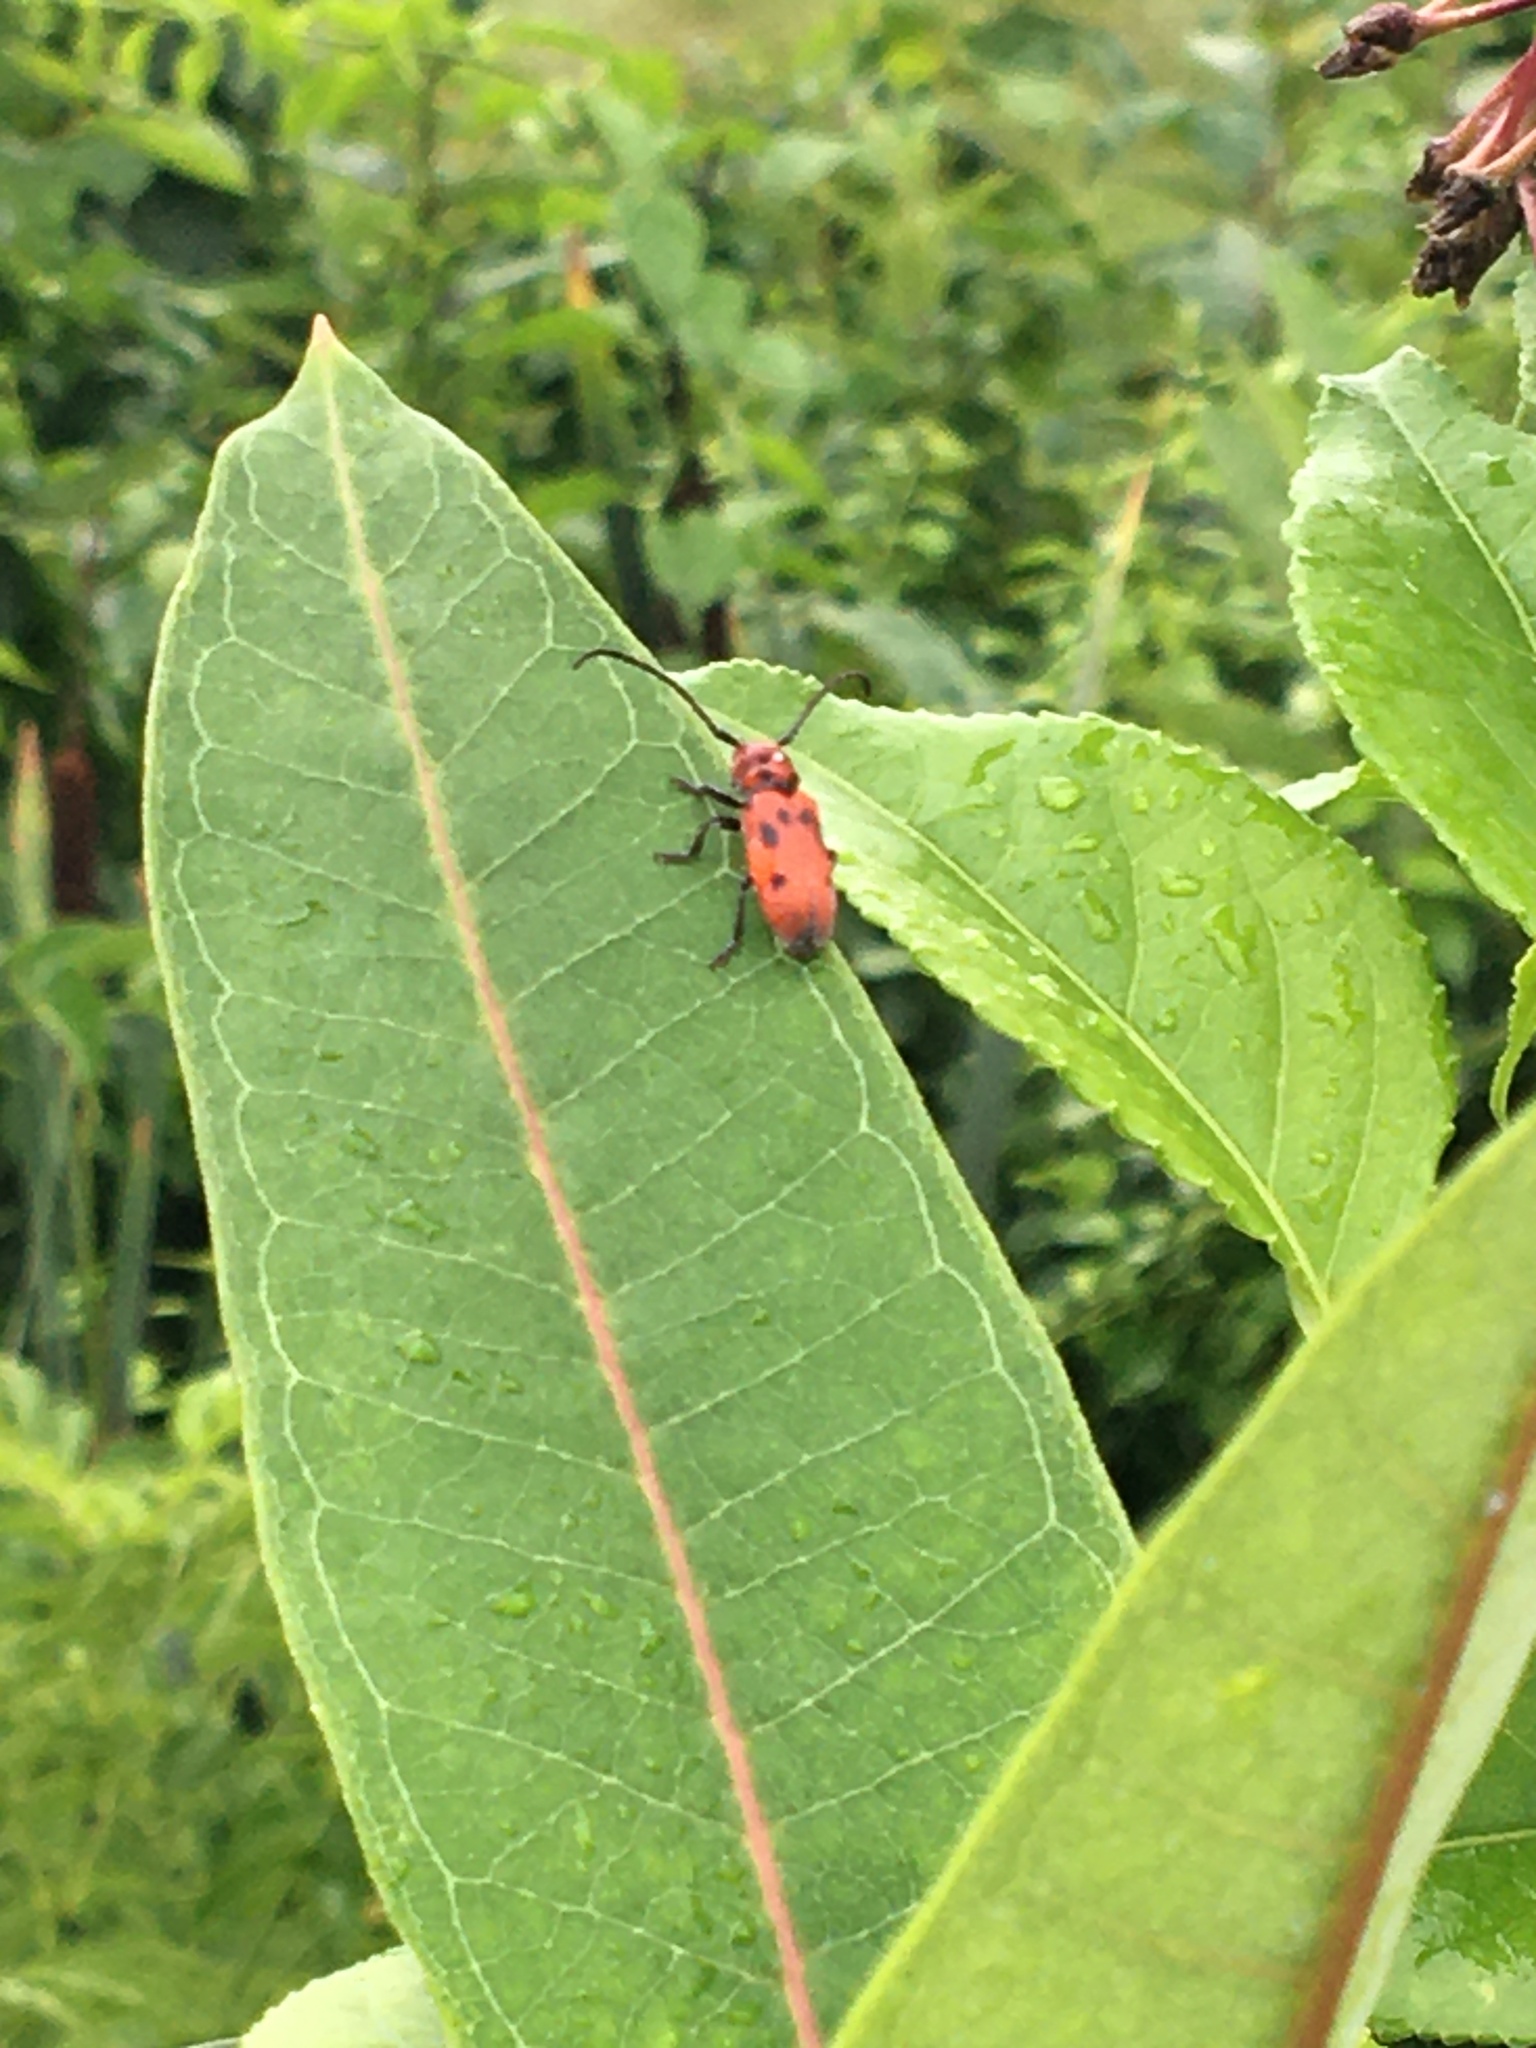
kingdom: Animalia
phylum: Arthropoda
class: Insecta
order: Coleoptera
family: Cerambycidae
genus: Tetraopes
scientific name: Tetraopes tetrophthalmus
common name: Red milkweed beetle
